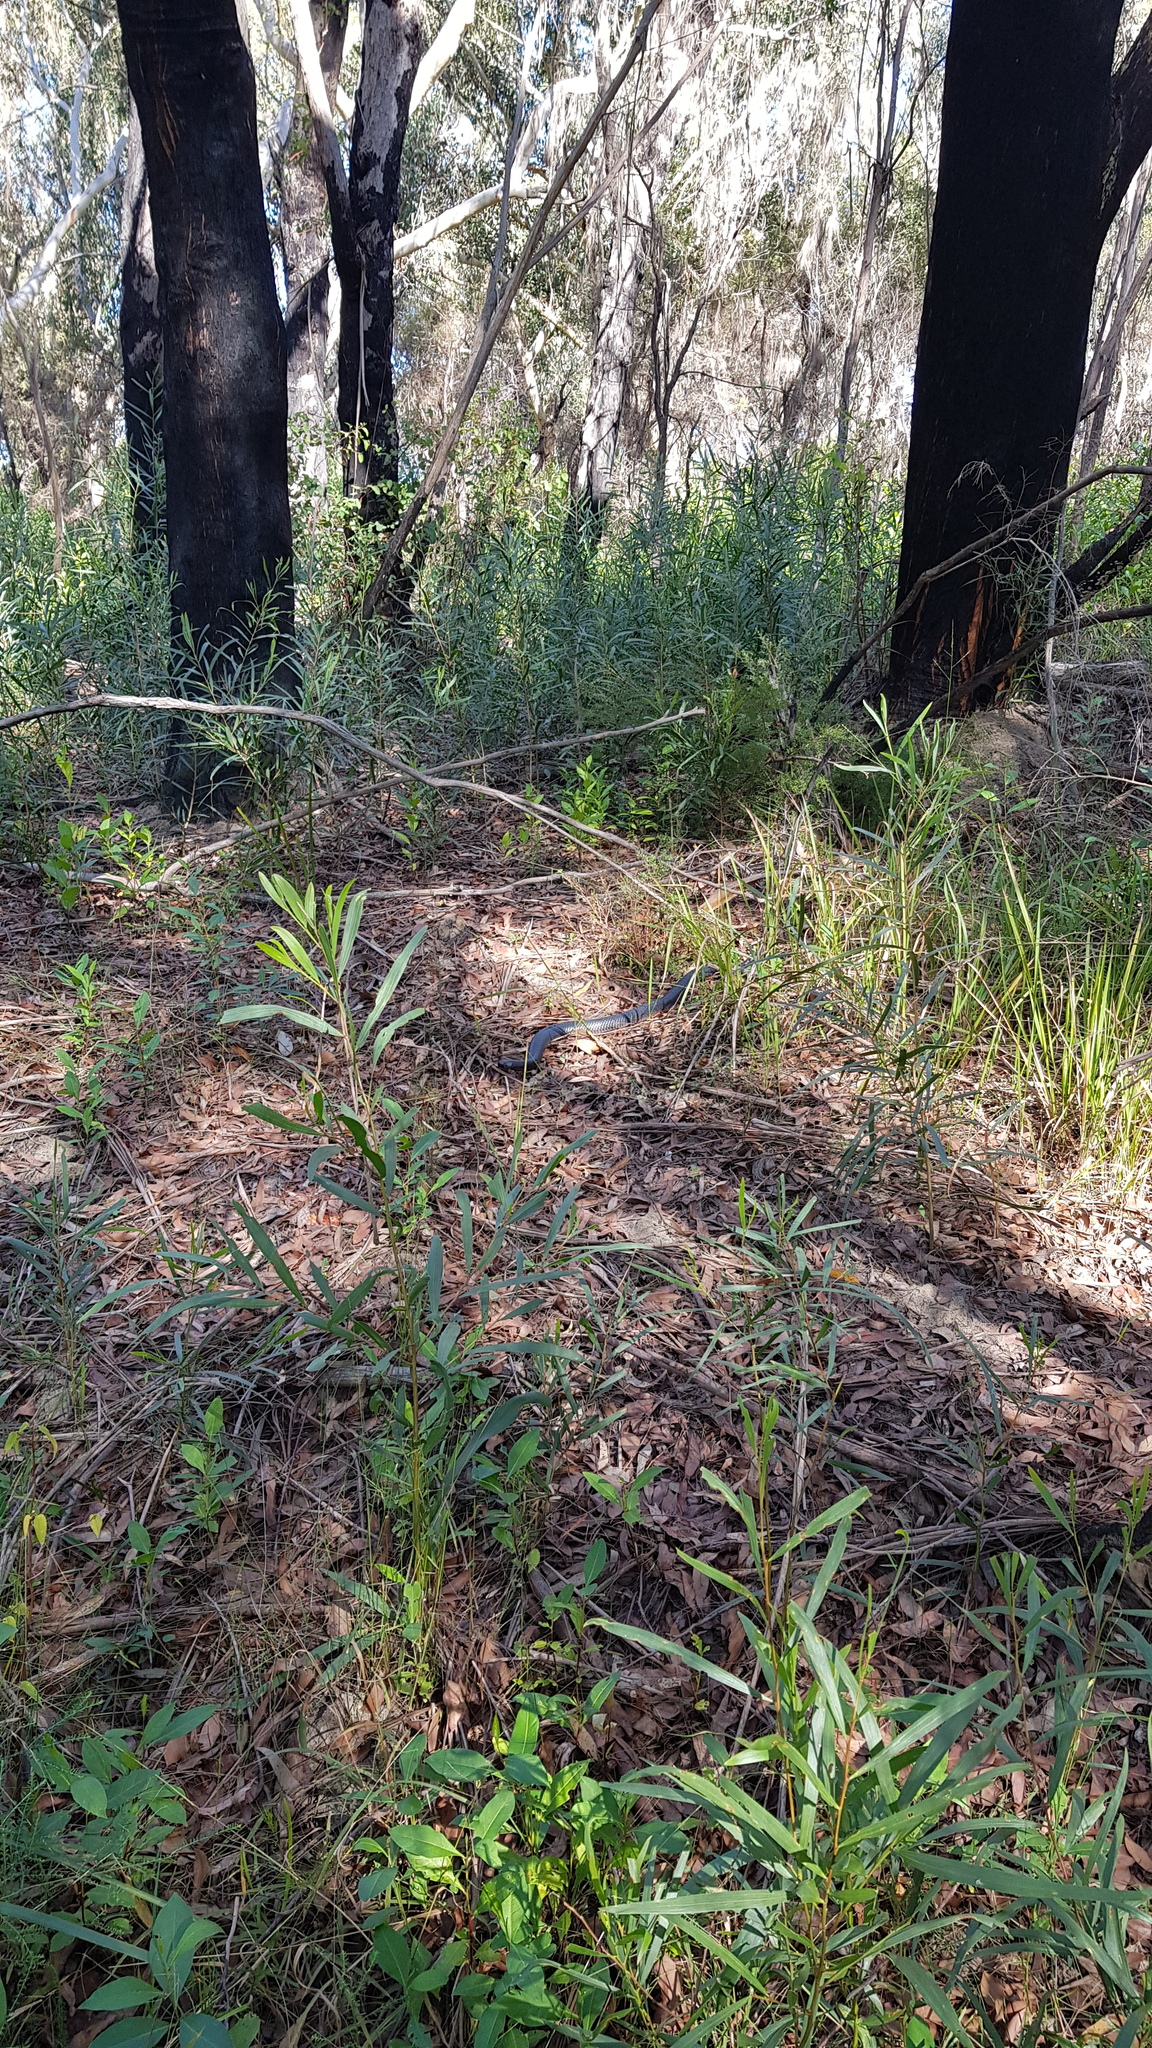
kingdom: Animalia
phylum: Chordata
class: Squamata
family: Elapidae
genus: Pseudechis
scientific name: Pseudechis porphyriacus
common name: Australian black snake
